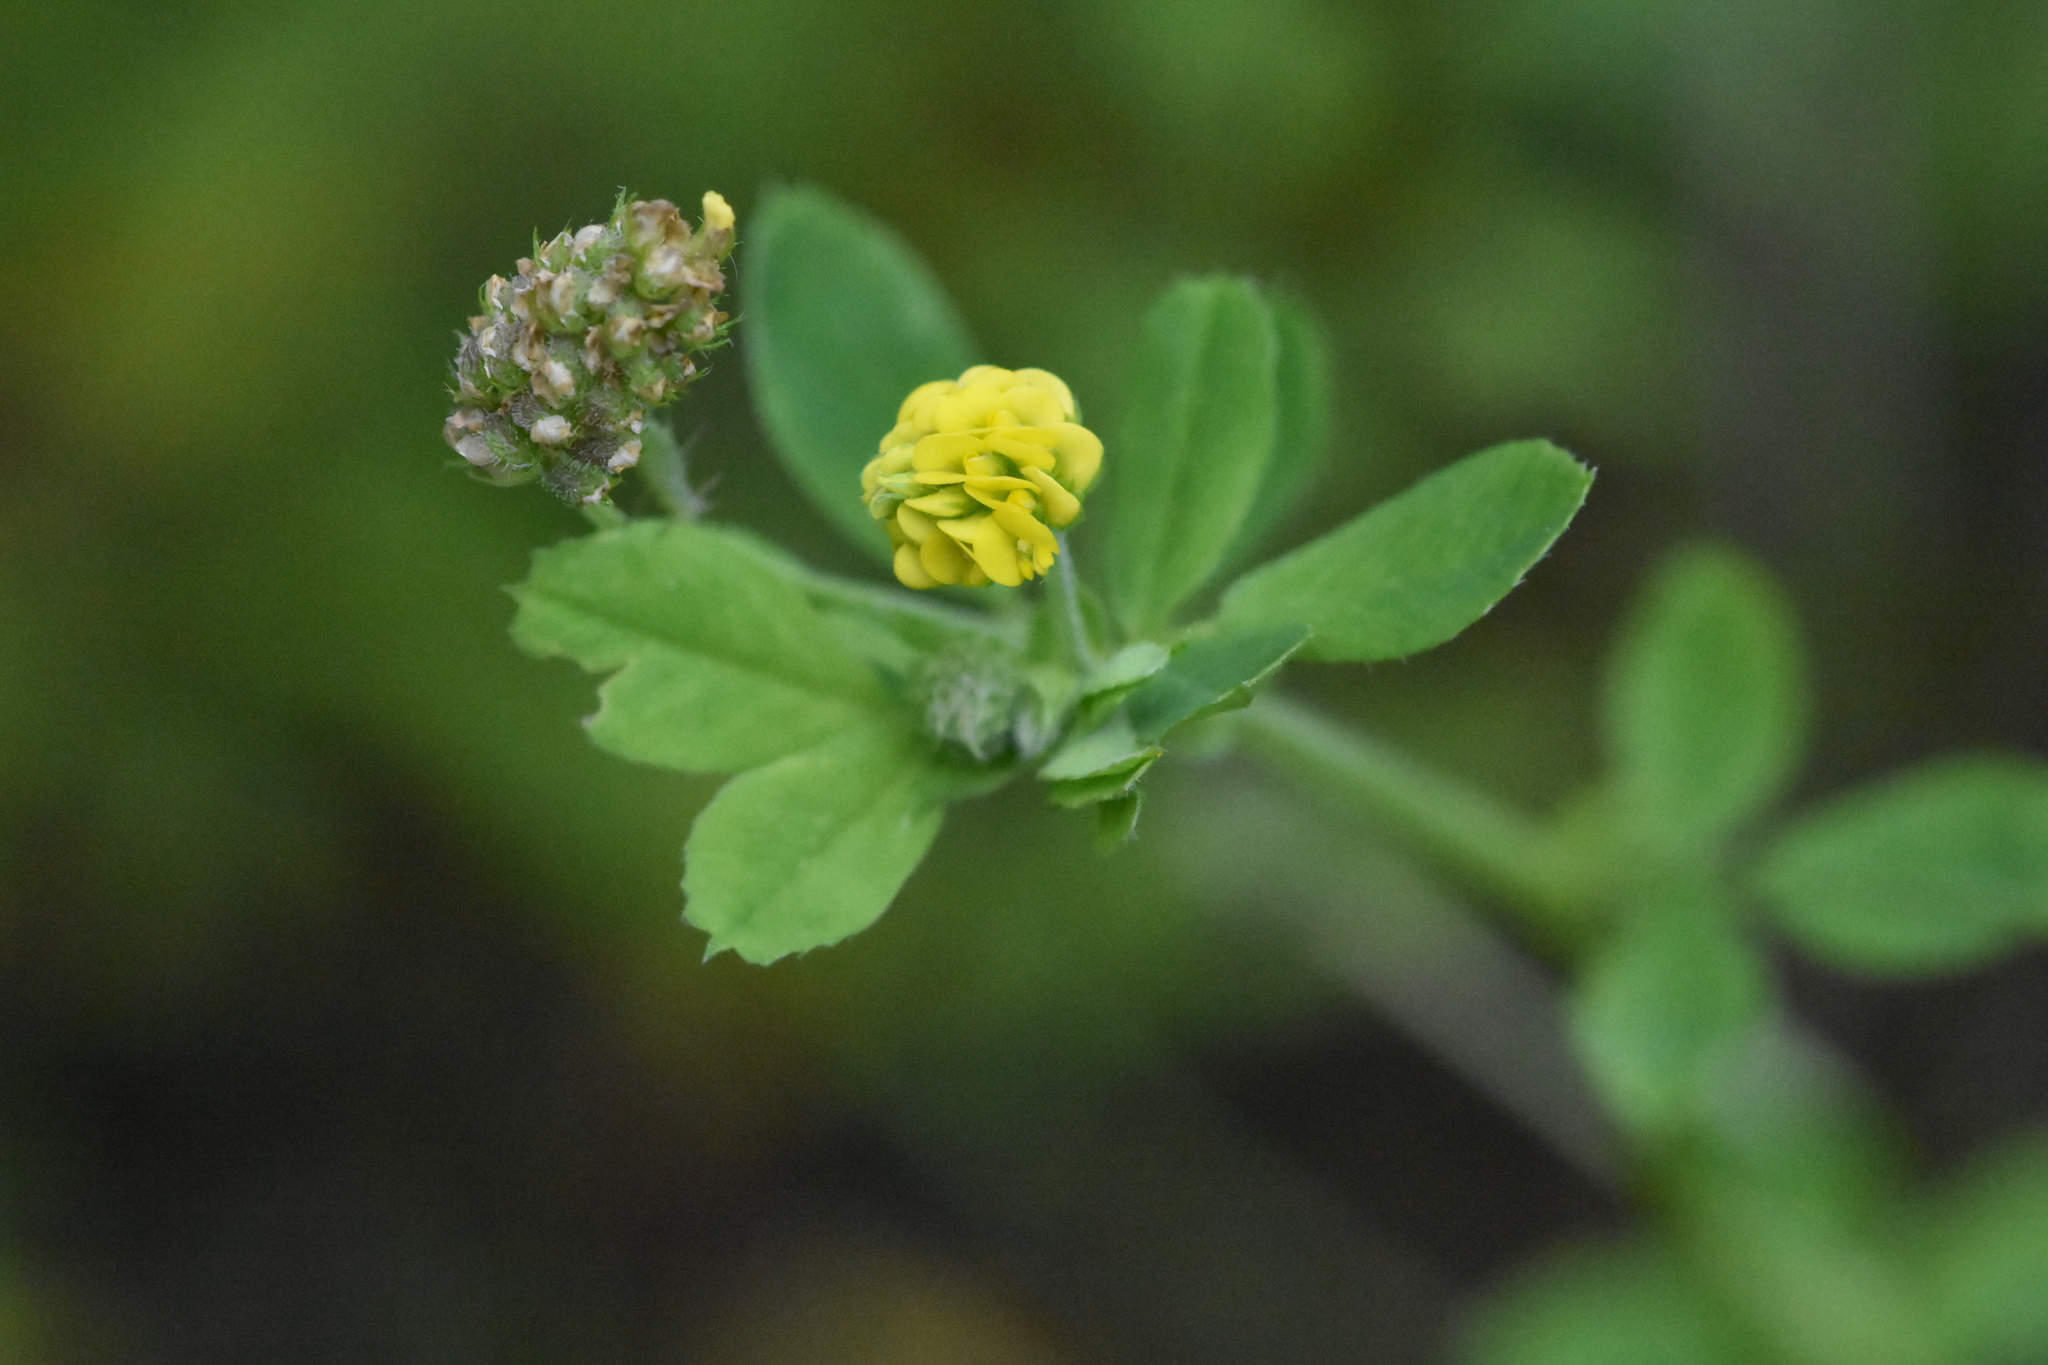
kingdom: Plantae
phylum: Tracheophyta
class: Magnoliopsida
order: Fabales
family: Fabaceae
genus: Medicago
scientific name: Medicago lupulina
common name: Black medick
